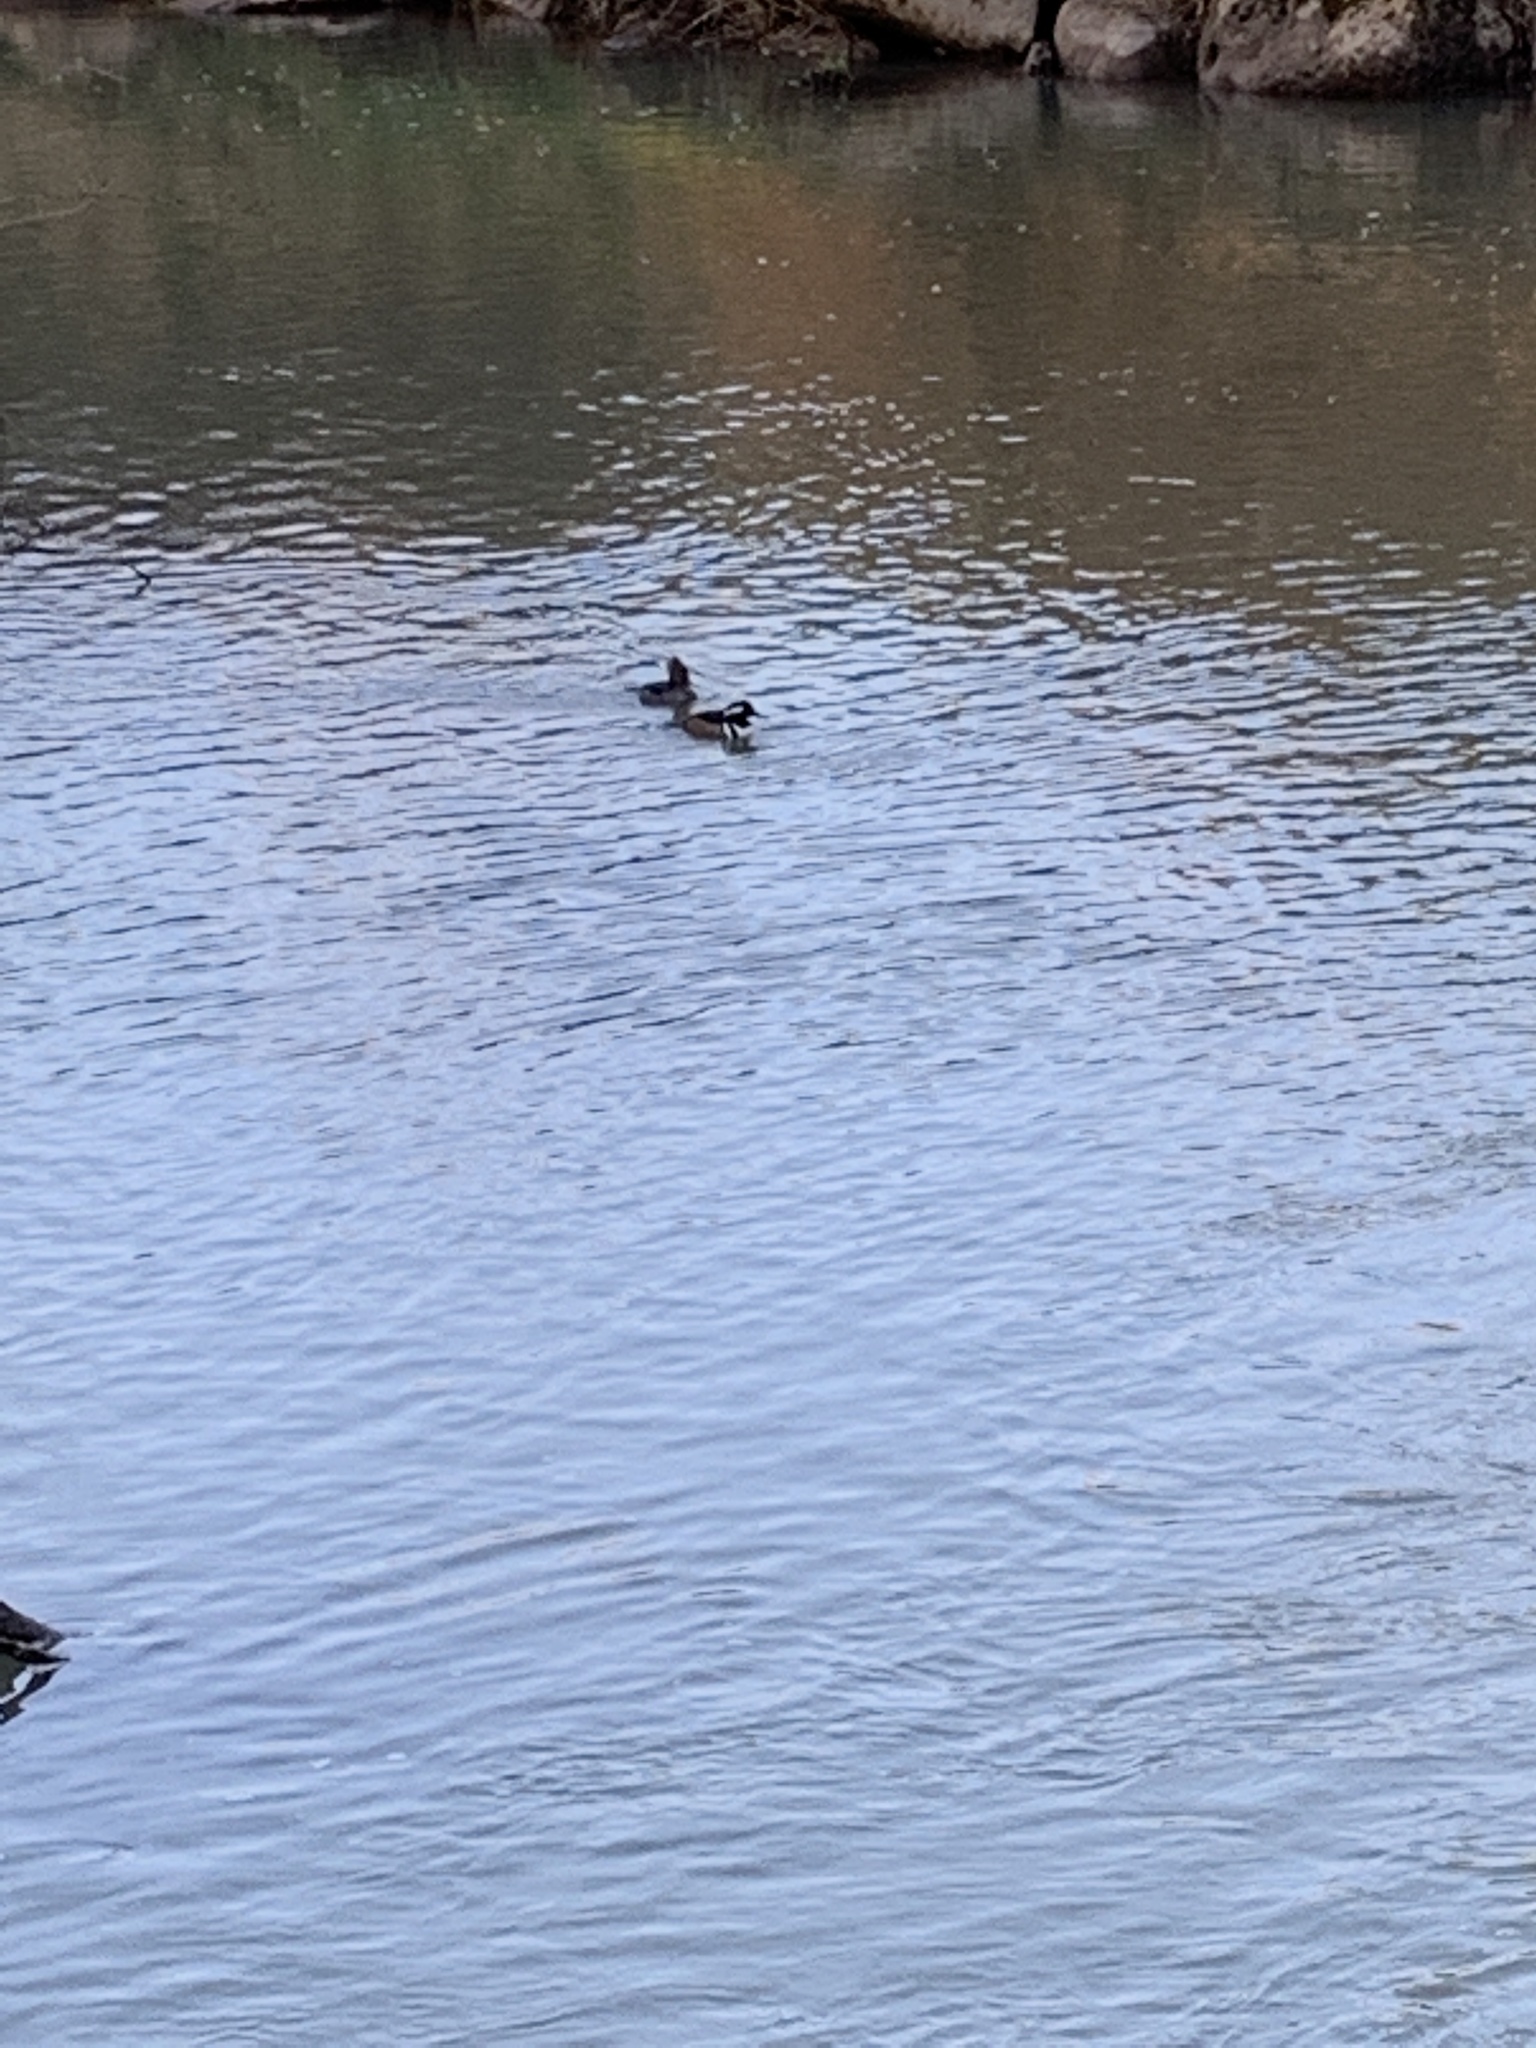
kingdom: Animalia
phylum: Chordata
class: Aves
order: Anseriformes
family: Anatidae
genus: Lophodytes
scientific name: Lophodytes cucullatus
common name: Hooded merganser
